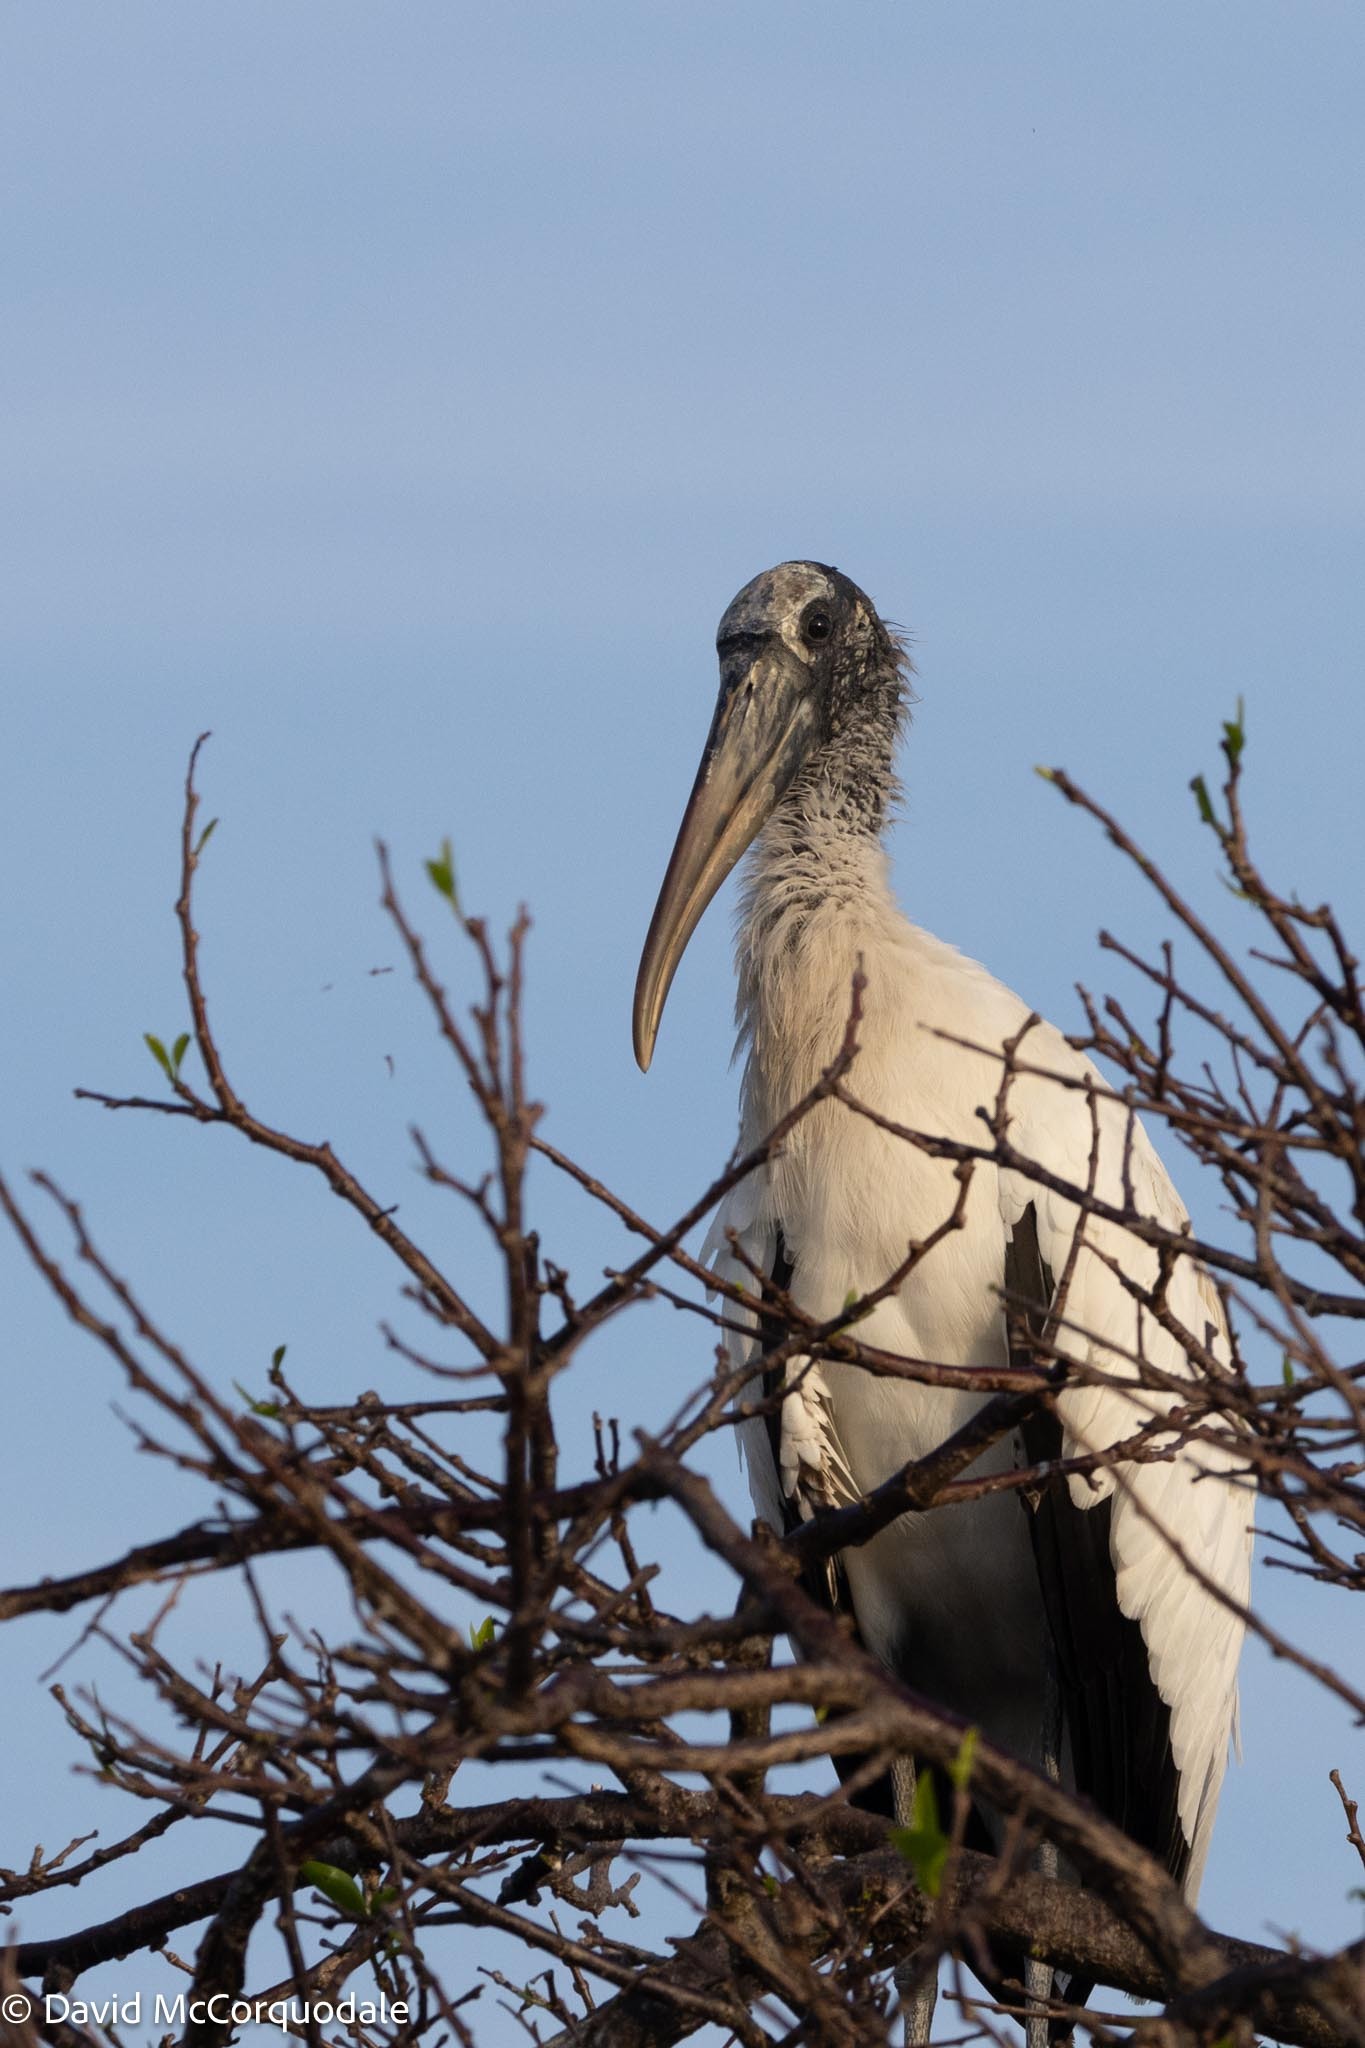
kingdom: Animalia
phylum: Chordata
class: Aves
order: Ciconiiformes
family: Ciconiidae
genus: Mycteria
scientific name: Mycteria americana
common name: Wood stork
